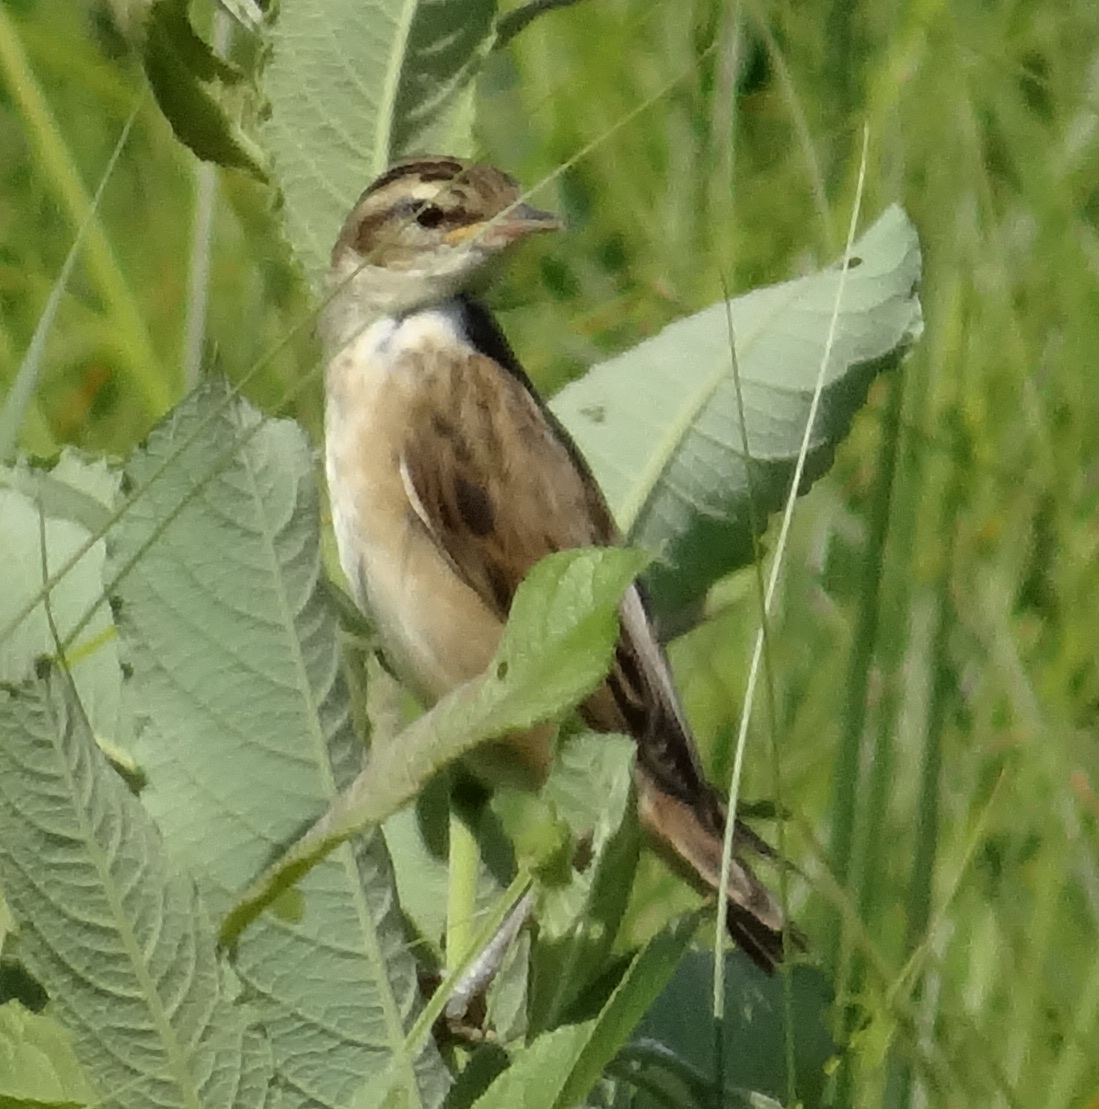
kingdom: Animalia
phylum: Chordata
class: Aves
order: Passeriformes
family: Acrocephalidae
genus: Acrocephalus
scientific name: Acrocephalus schoenobaenus
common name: Sedge warbler
